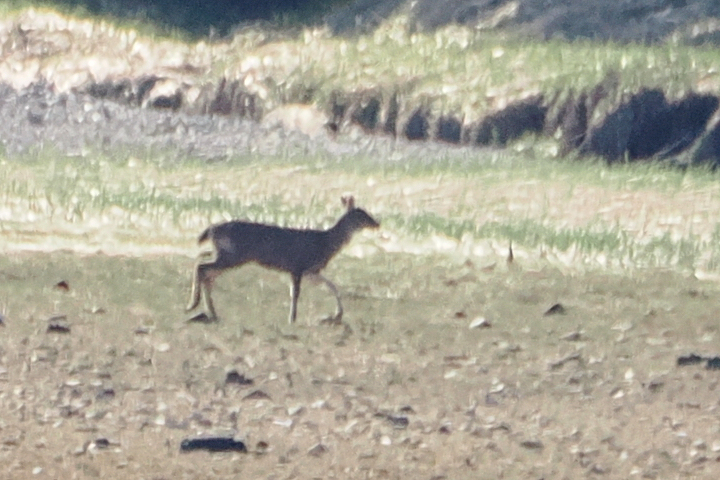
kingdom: Animalia
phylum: Chordata
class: Mammalia
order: Artiodactyla
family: Cervidae
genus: Odocoileus
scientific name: Odocoileus hemionus
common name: Mule deer
